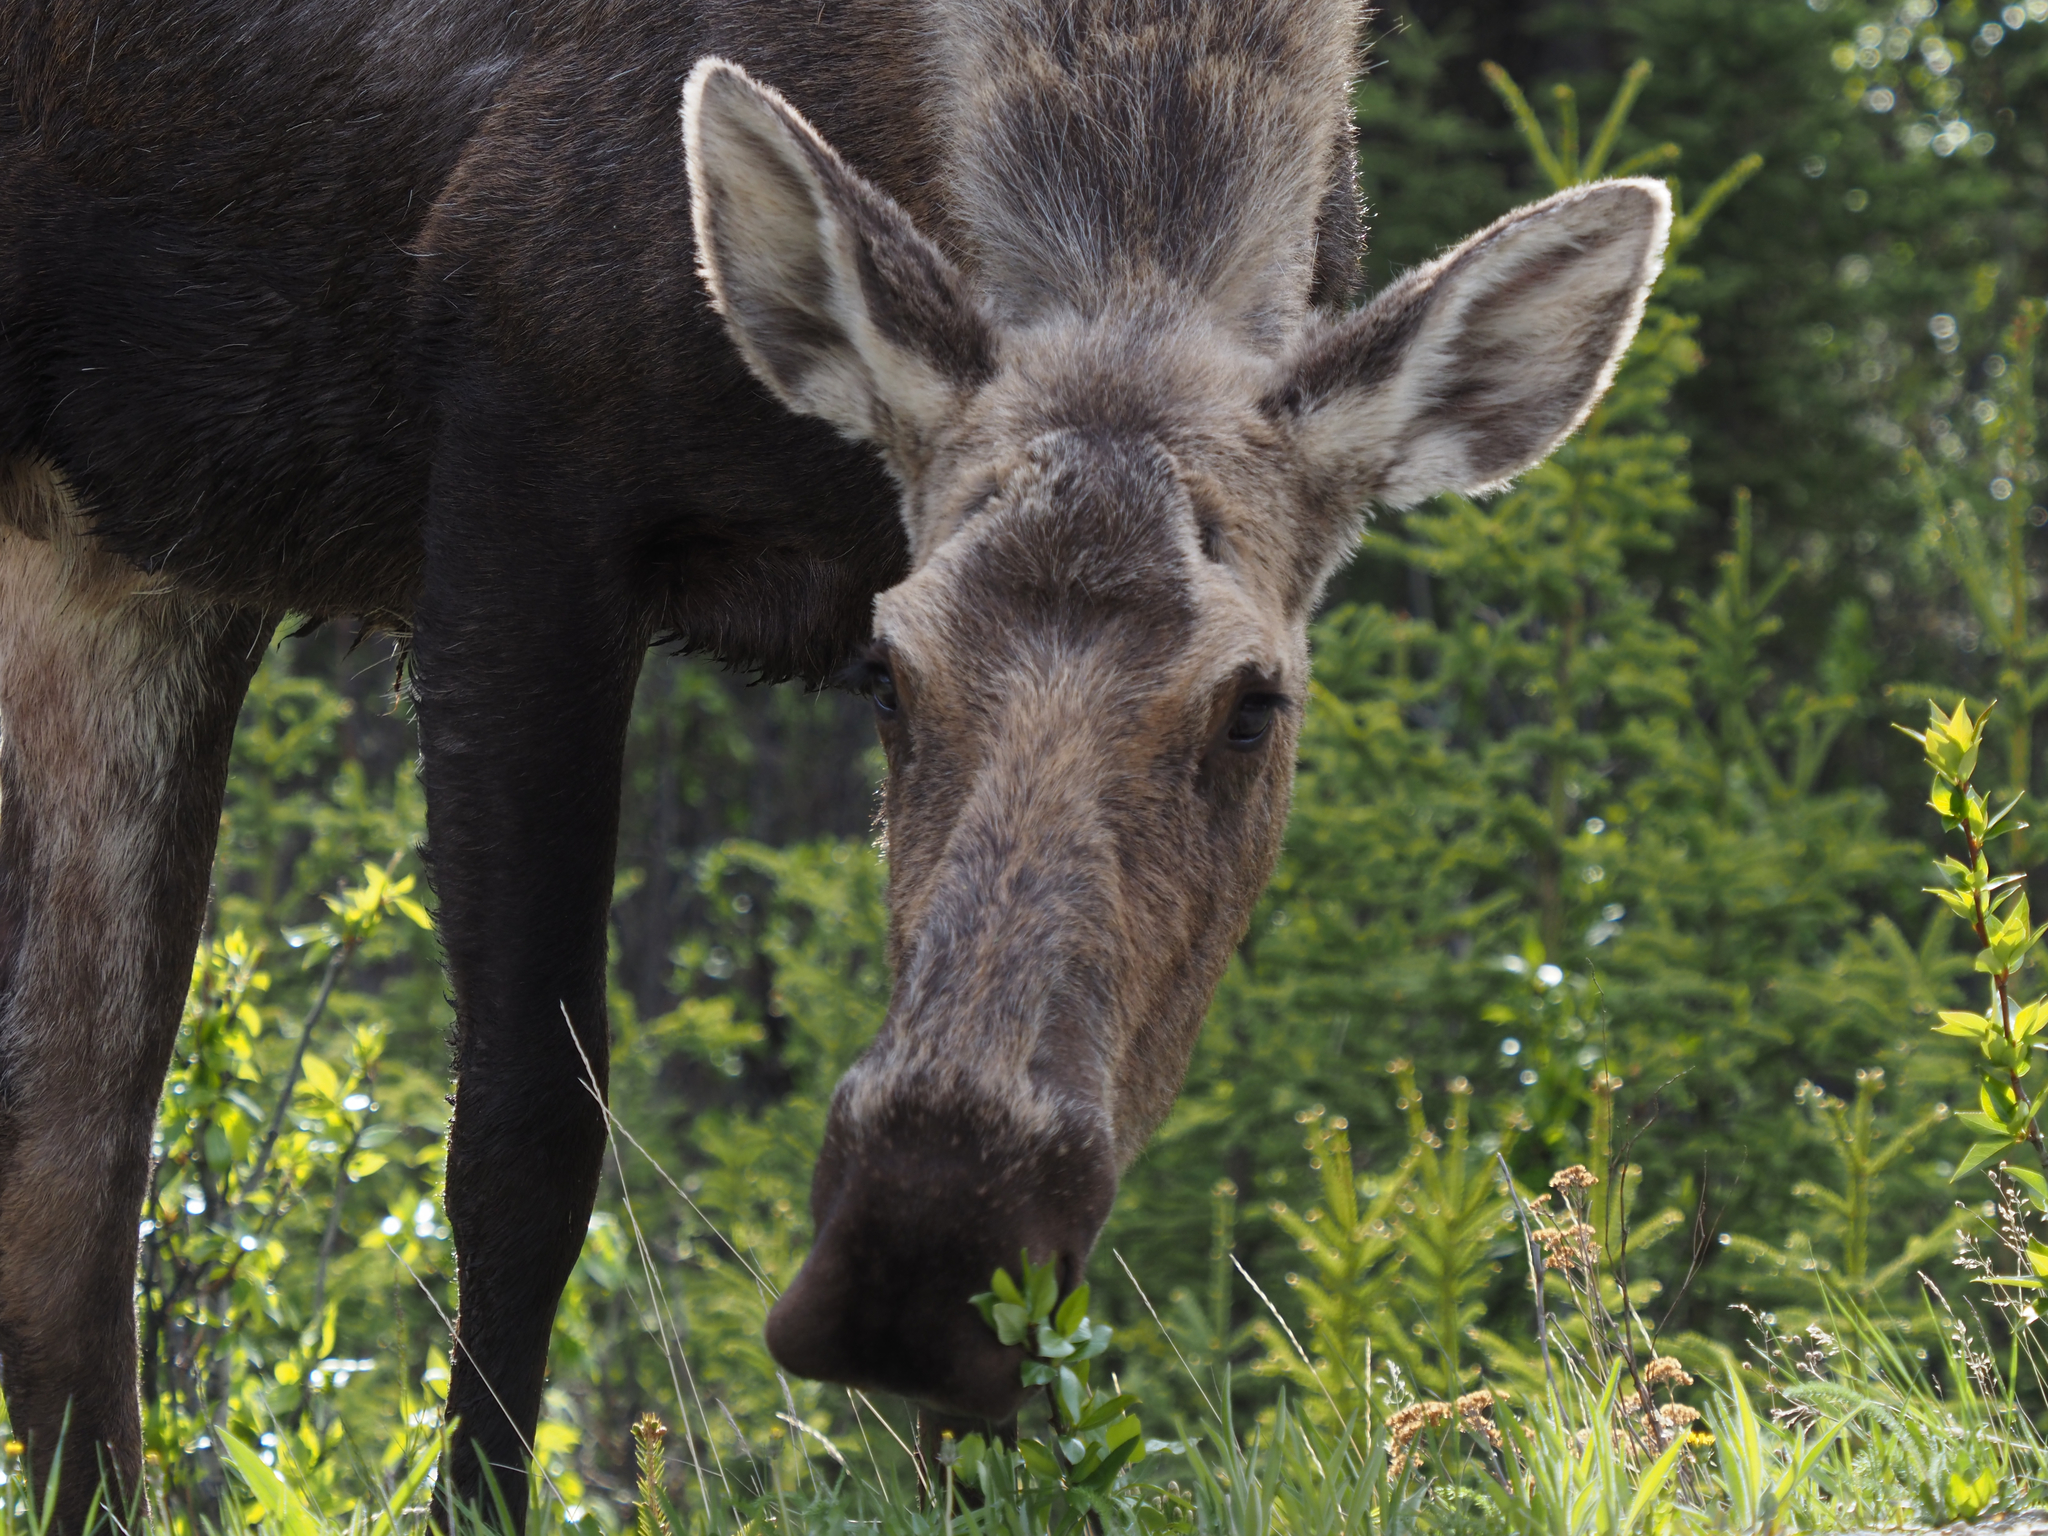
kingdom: Animalia
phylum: Chordata
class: Mammalia
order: Artiodactyla
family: Cervidae
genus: Alces
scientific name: Alces alces
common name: Moose
